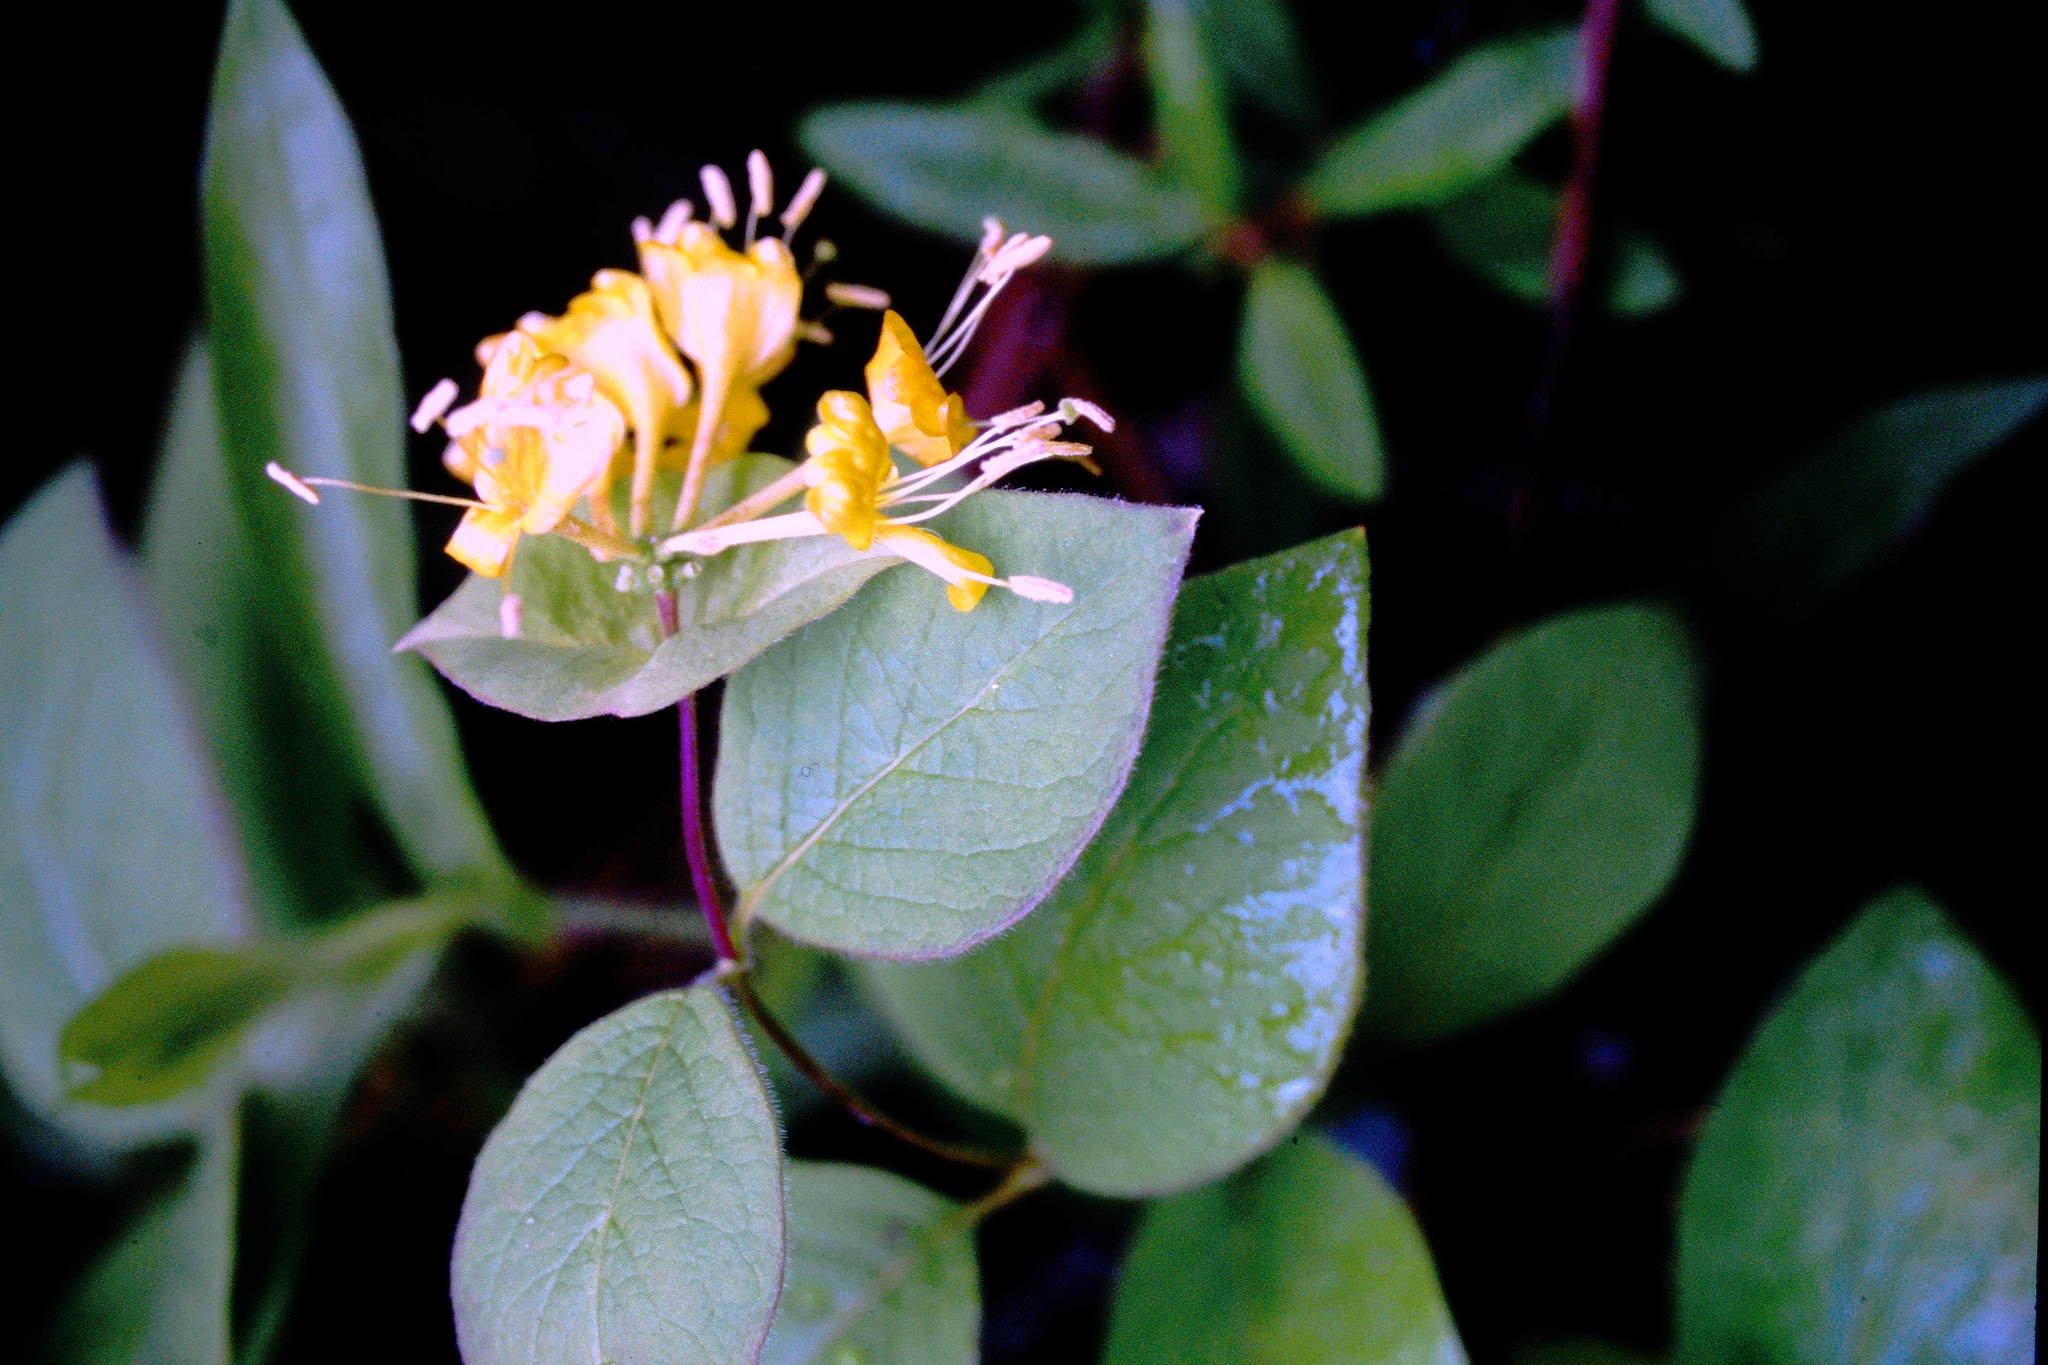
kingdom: Plantae
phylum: Tracheophyta
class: Magnoliopsida
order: Dipsacales
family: Caprifoliaceae
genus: Lonicera
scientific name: Lonicera hirsuta
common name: Hairy honeysuckle
